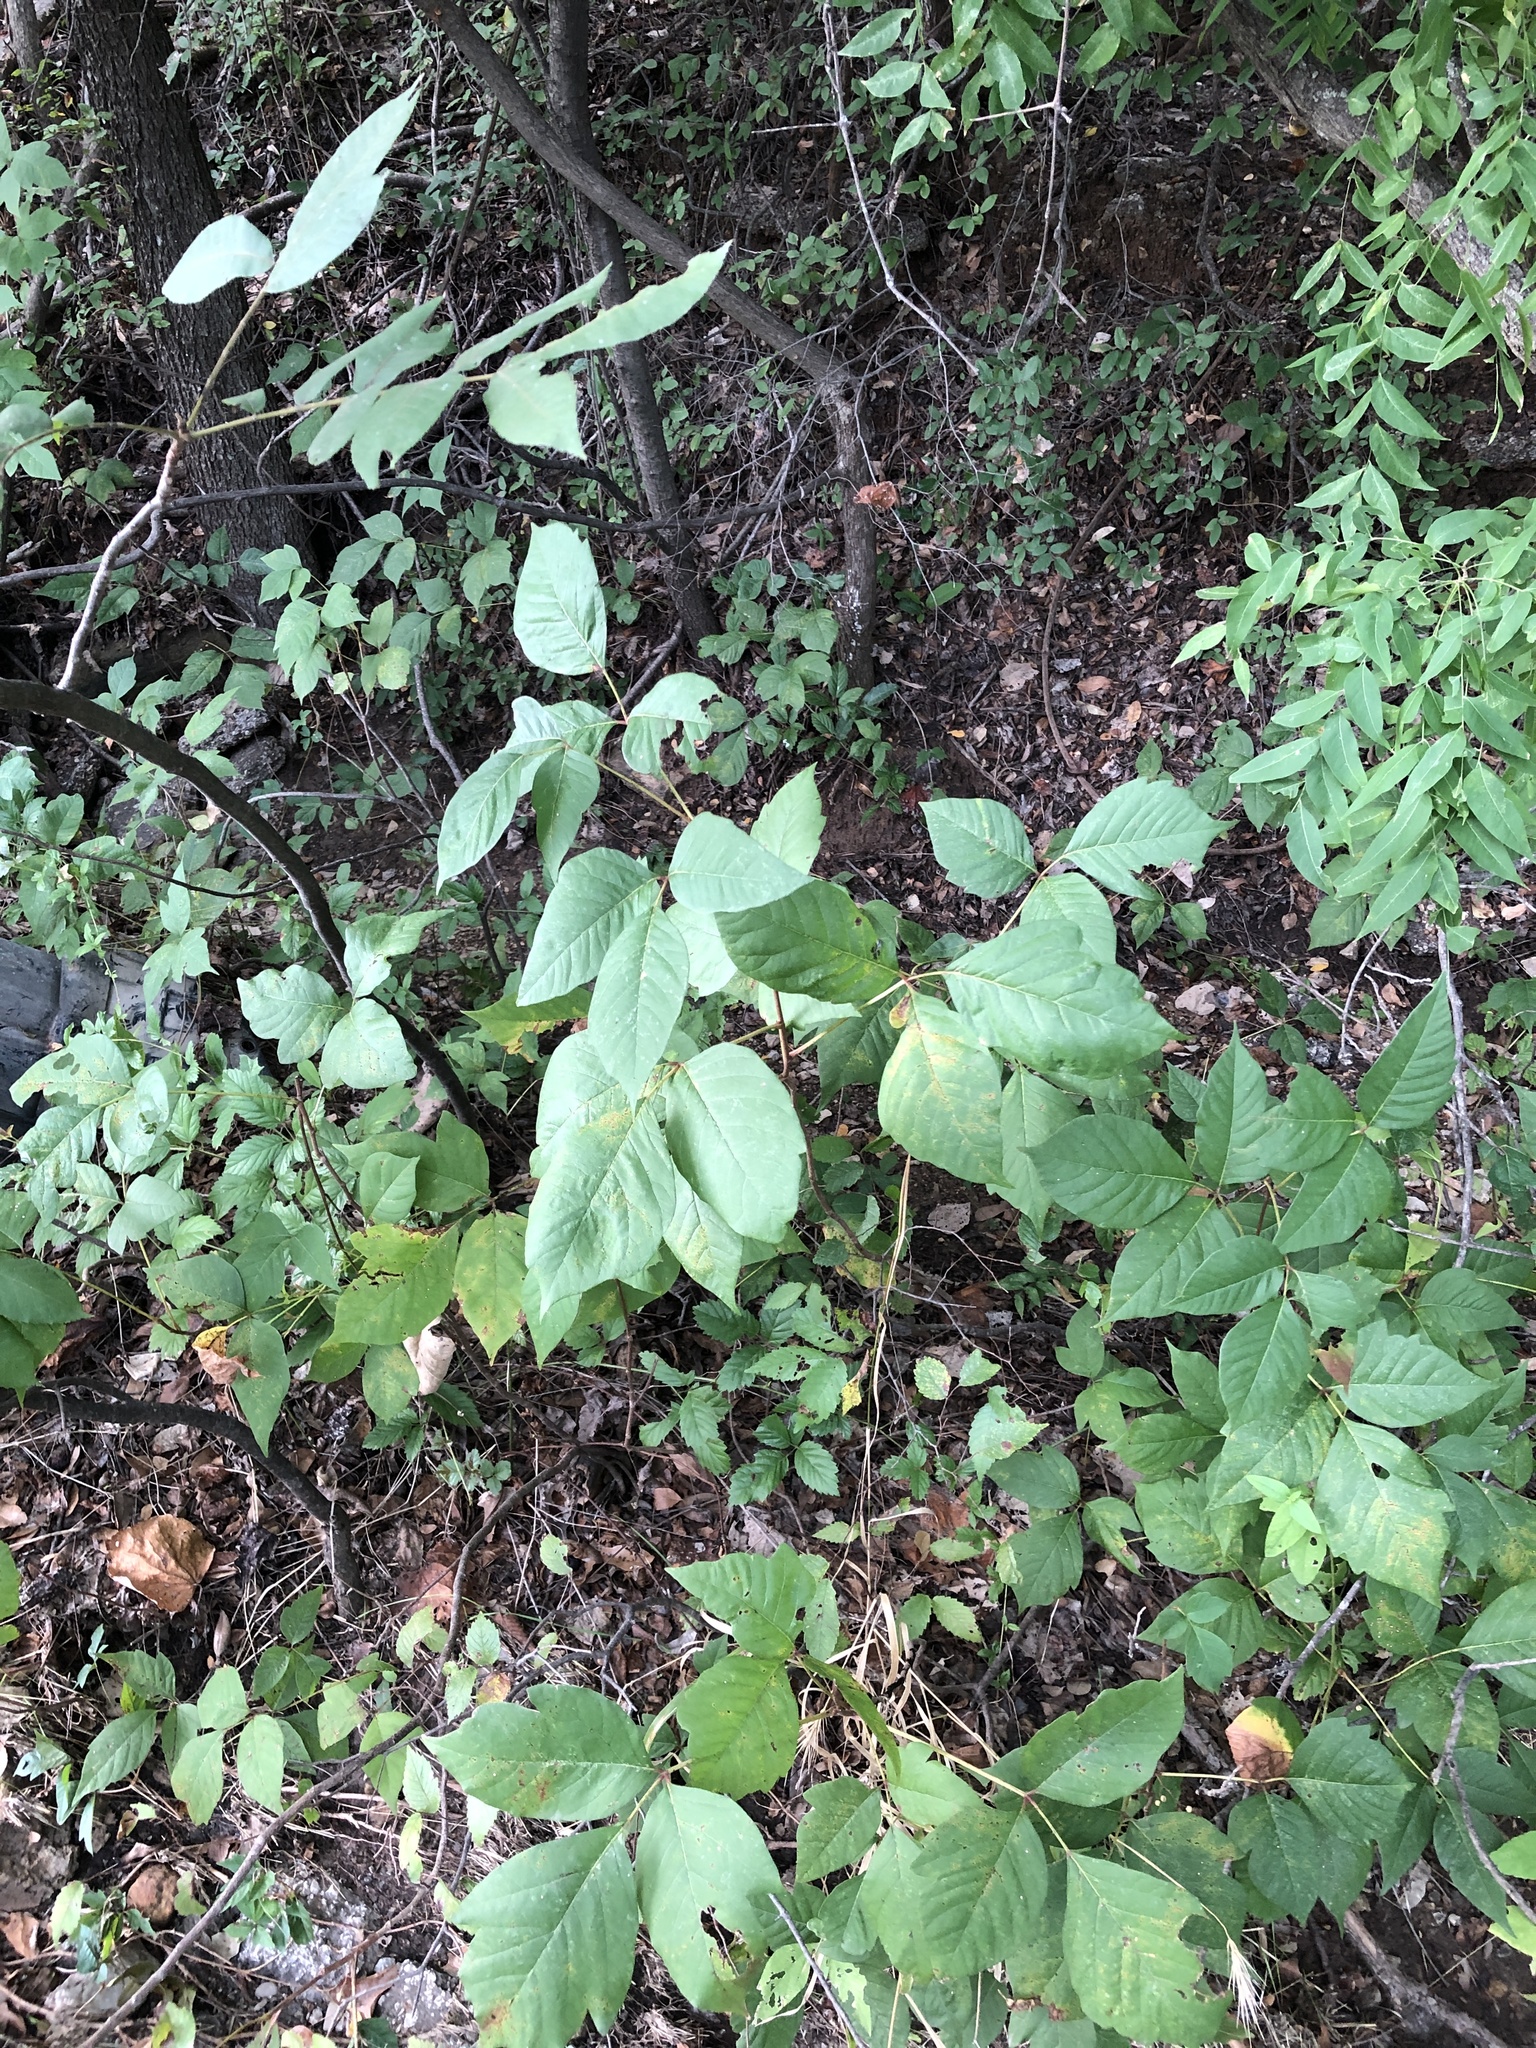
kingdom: Plantae
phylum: Tracheophyta
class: Magnoliopsida
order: Sapindales
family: Anacardiaceae
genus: Toxicodendron
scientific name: Toxicodendron radicans
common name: Poison ivy
